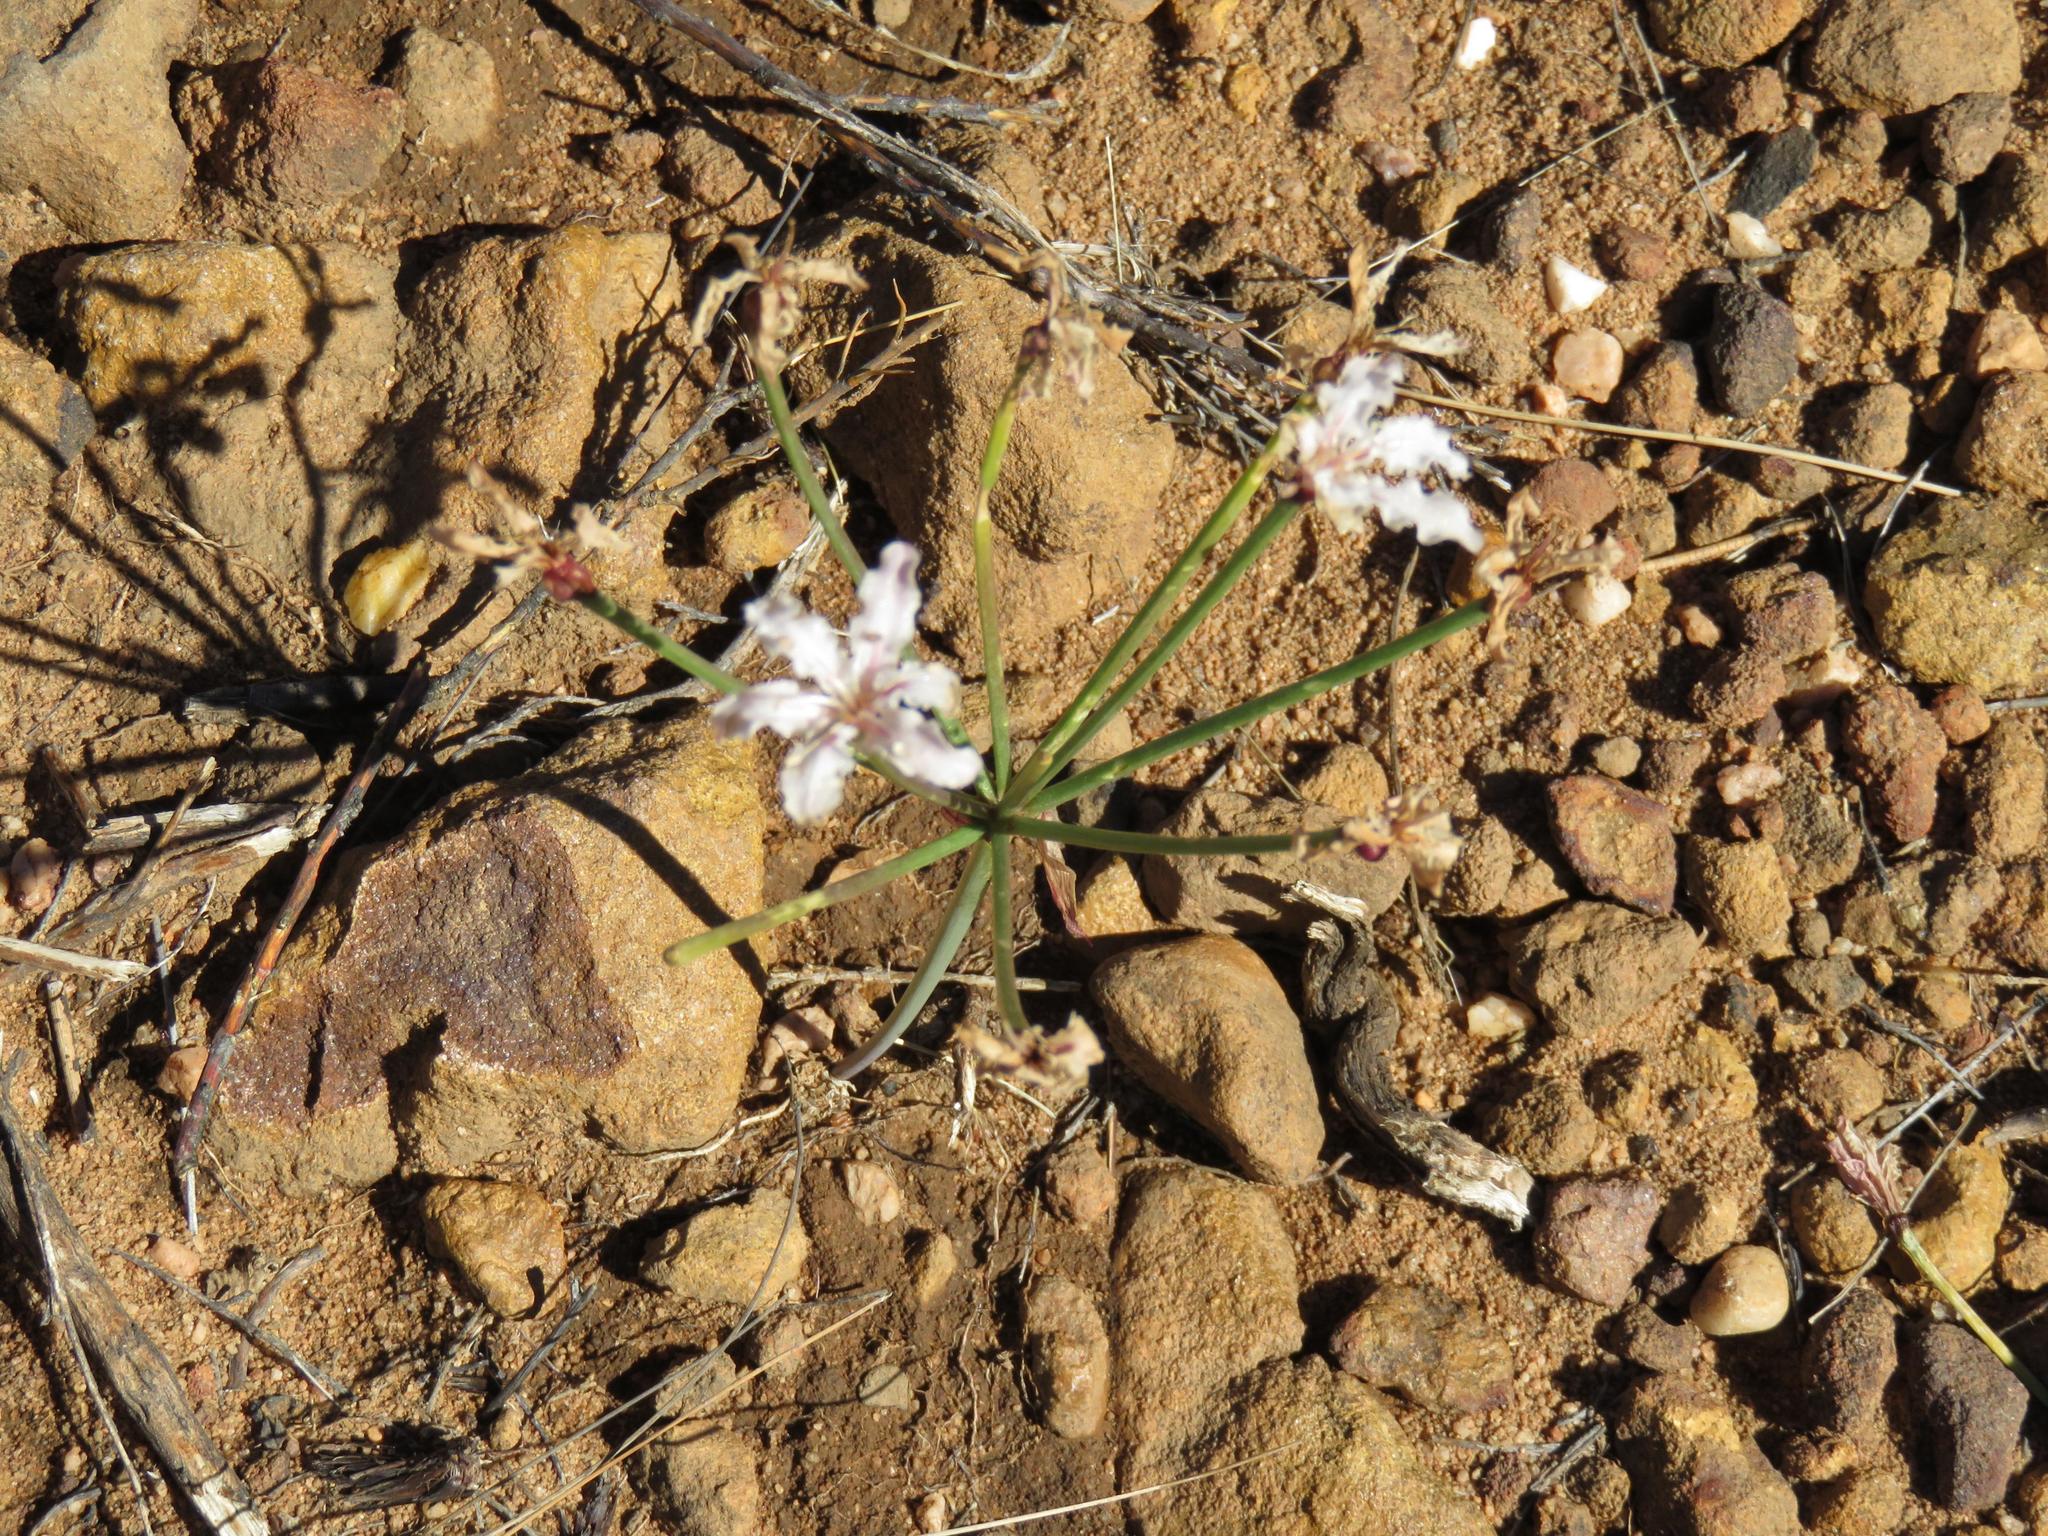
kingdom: Plantae
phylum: Tracheophyta
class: Liliopsida
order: Asparagales
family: Amaryllidaceae
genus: Hessea
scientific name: Hessea monticola
